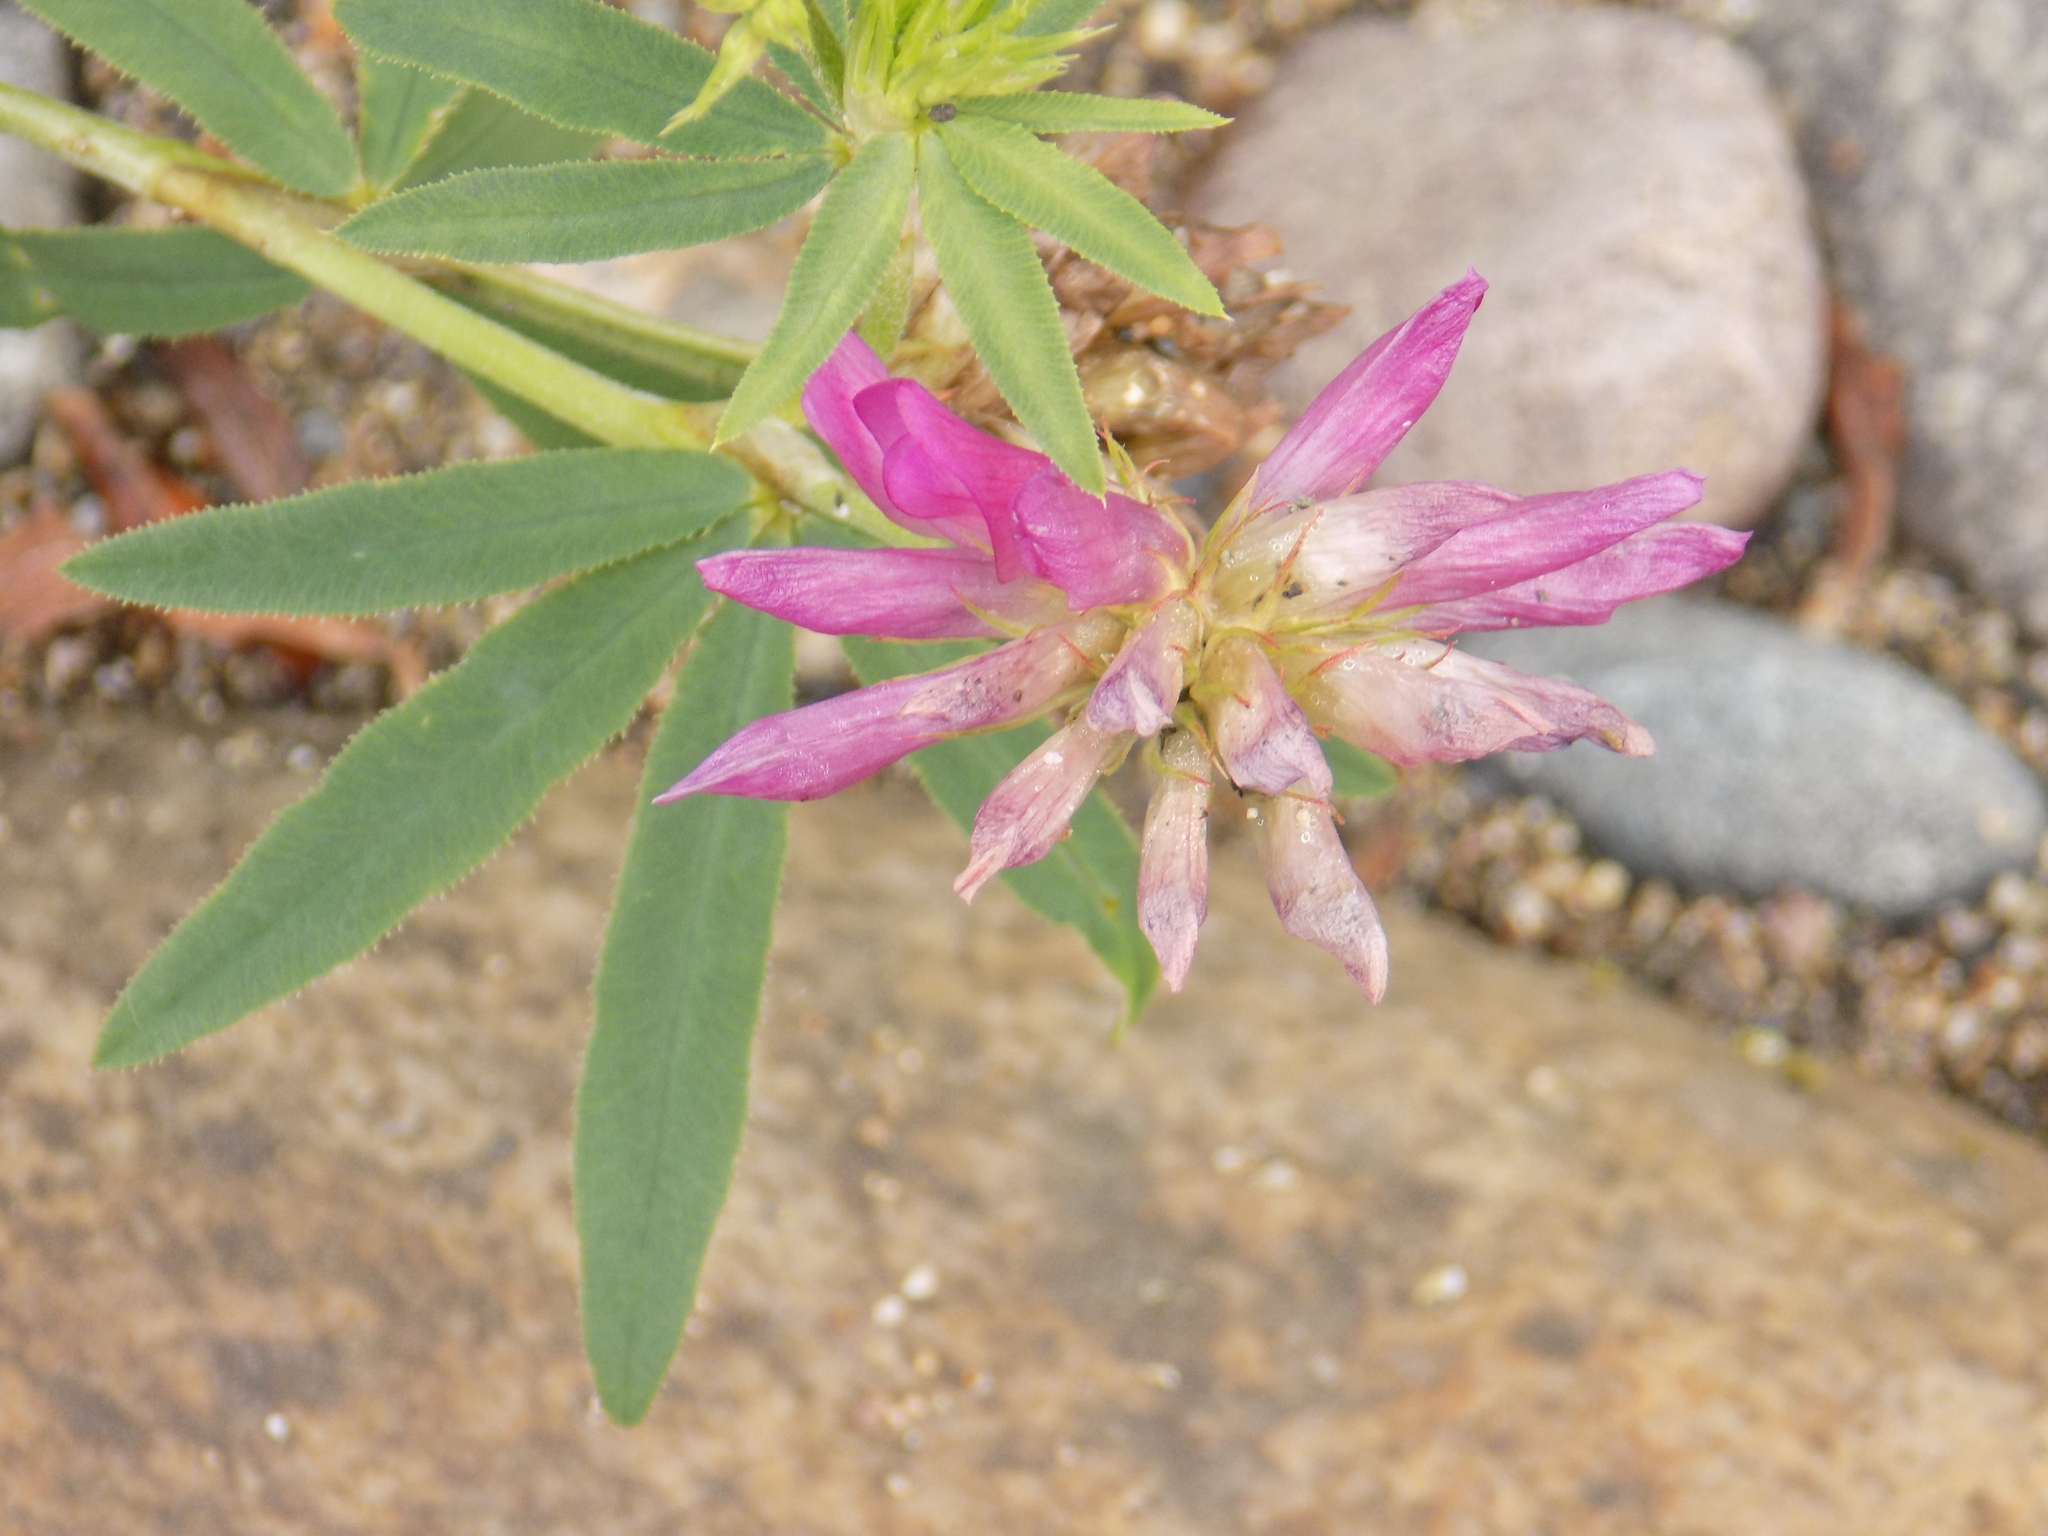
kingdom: Plantae
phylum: Tracheophyta
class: Magnoliopsida
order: Fabales
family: Fabaceae
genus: Trifolium
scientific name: Trifolium lupinaster
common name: Lupine clover
